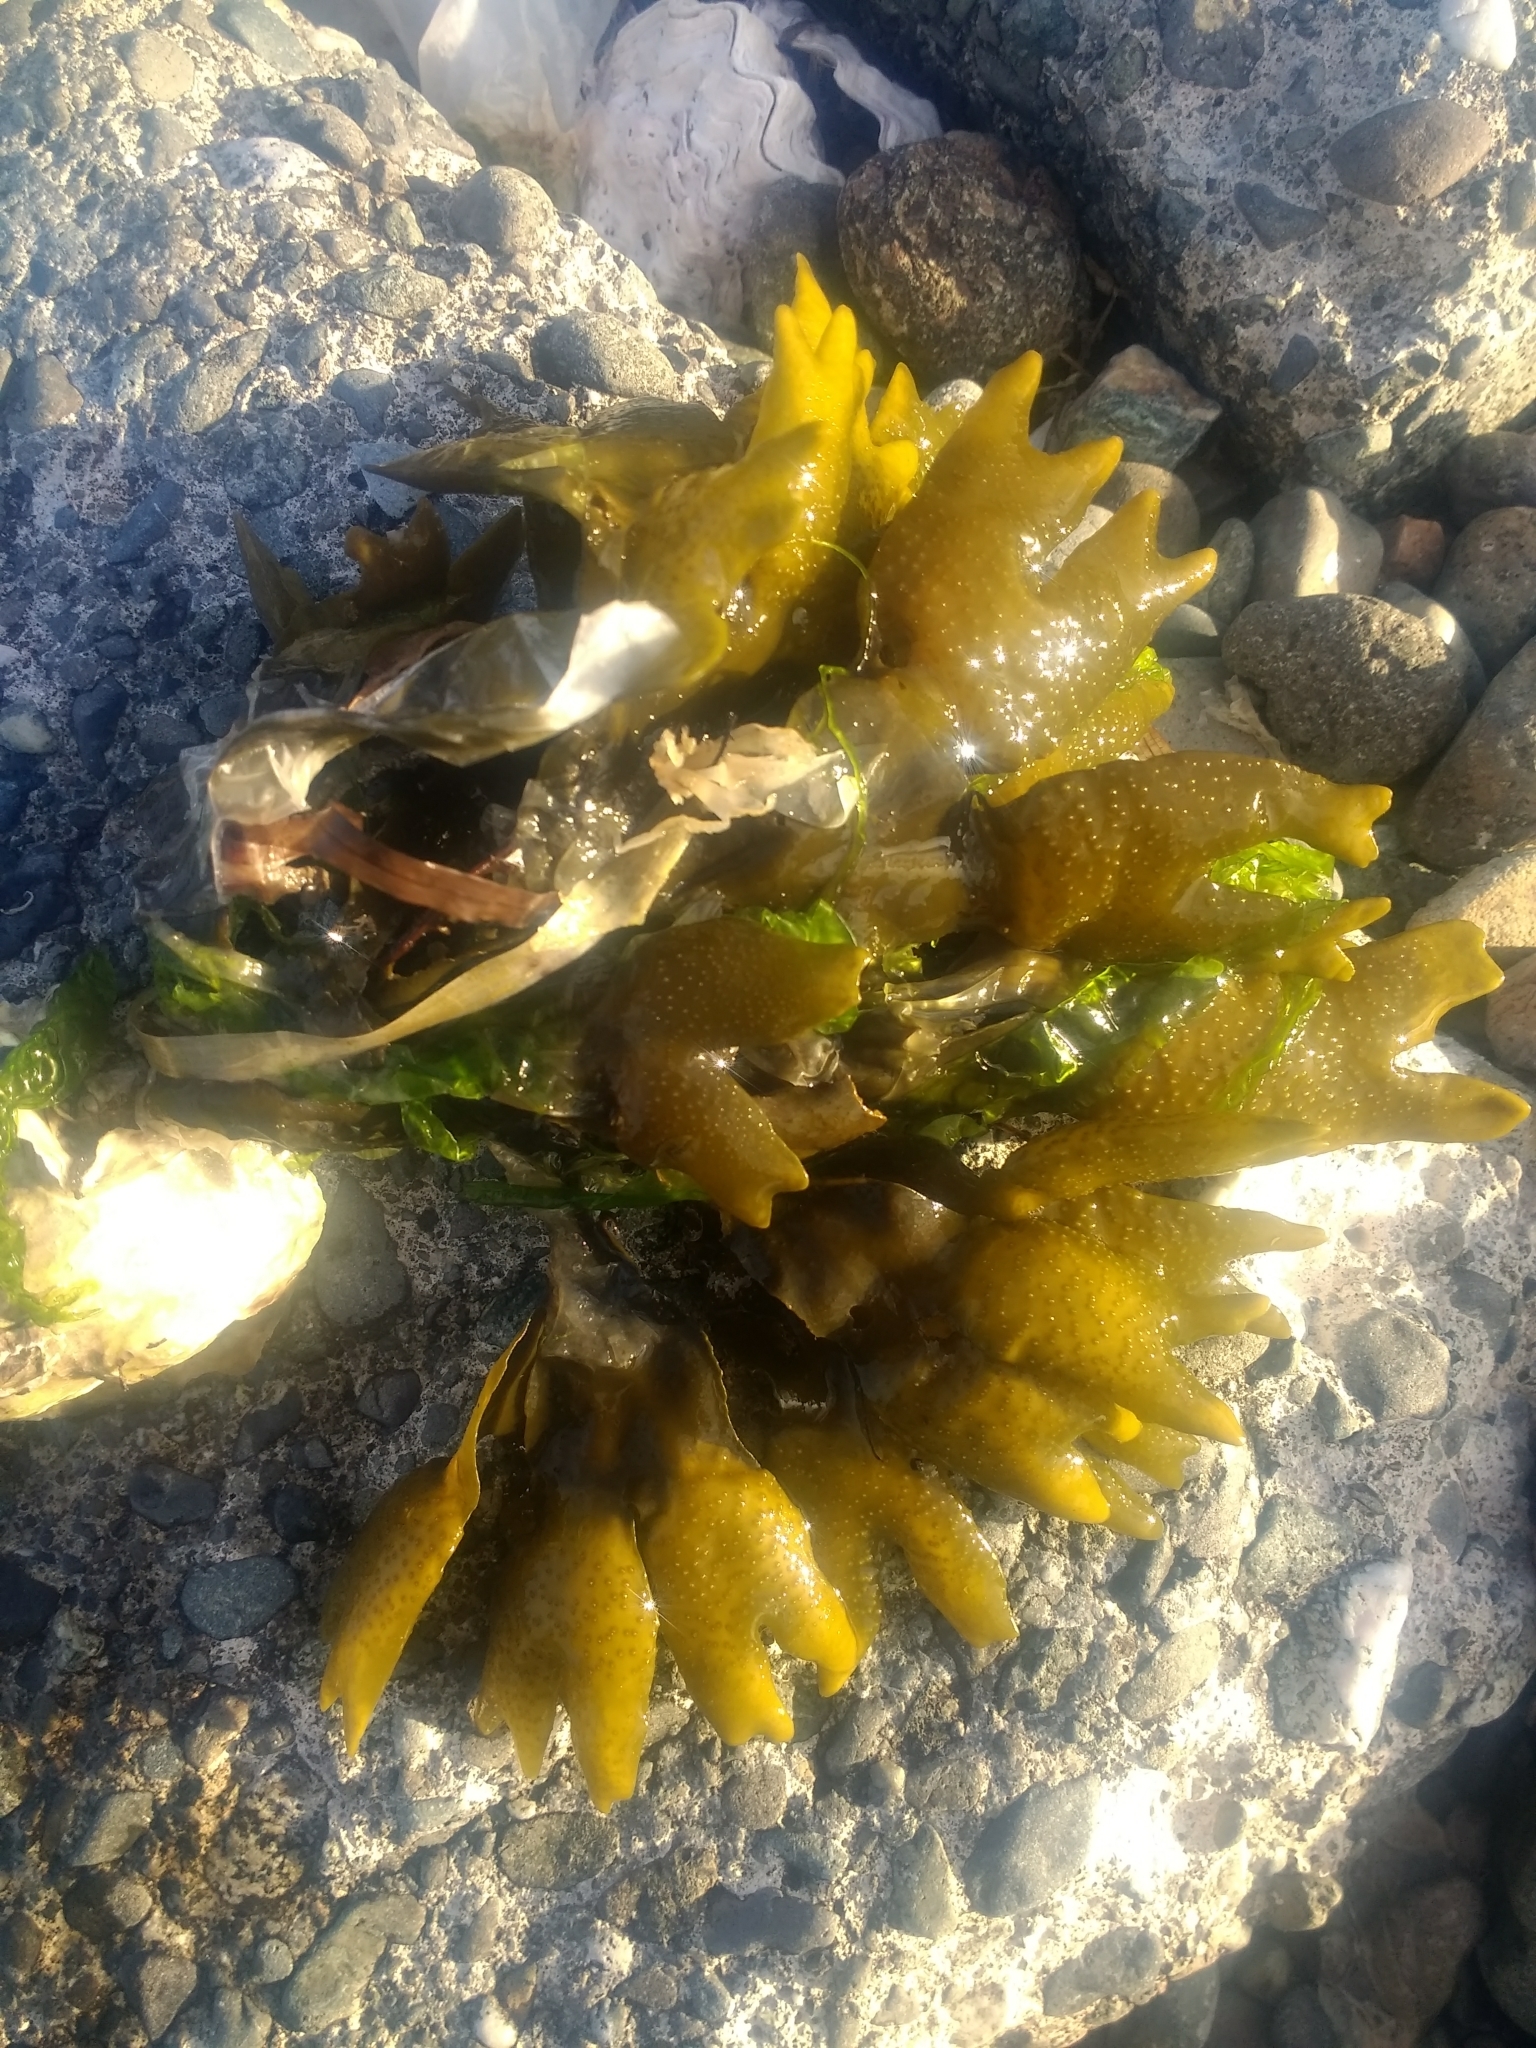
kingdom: Chromista
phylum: Ochrophyta
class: Phaeophyceae
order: Fucales
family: Fucaceae
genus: Fucus
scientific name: Fucus distichus
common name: Rockweed
